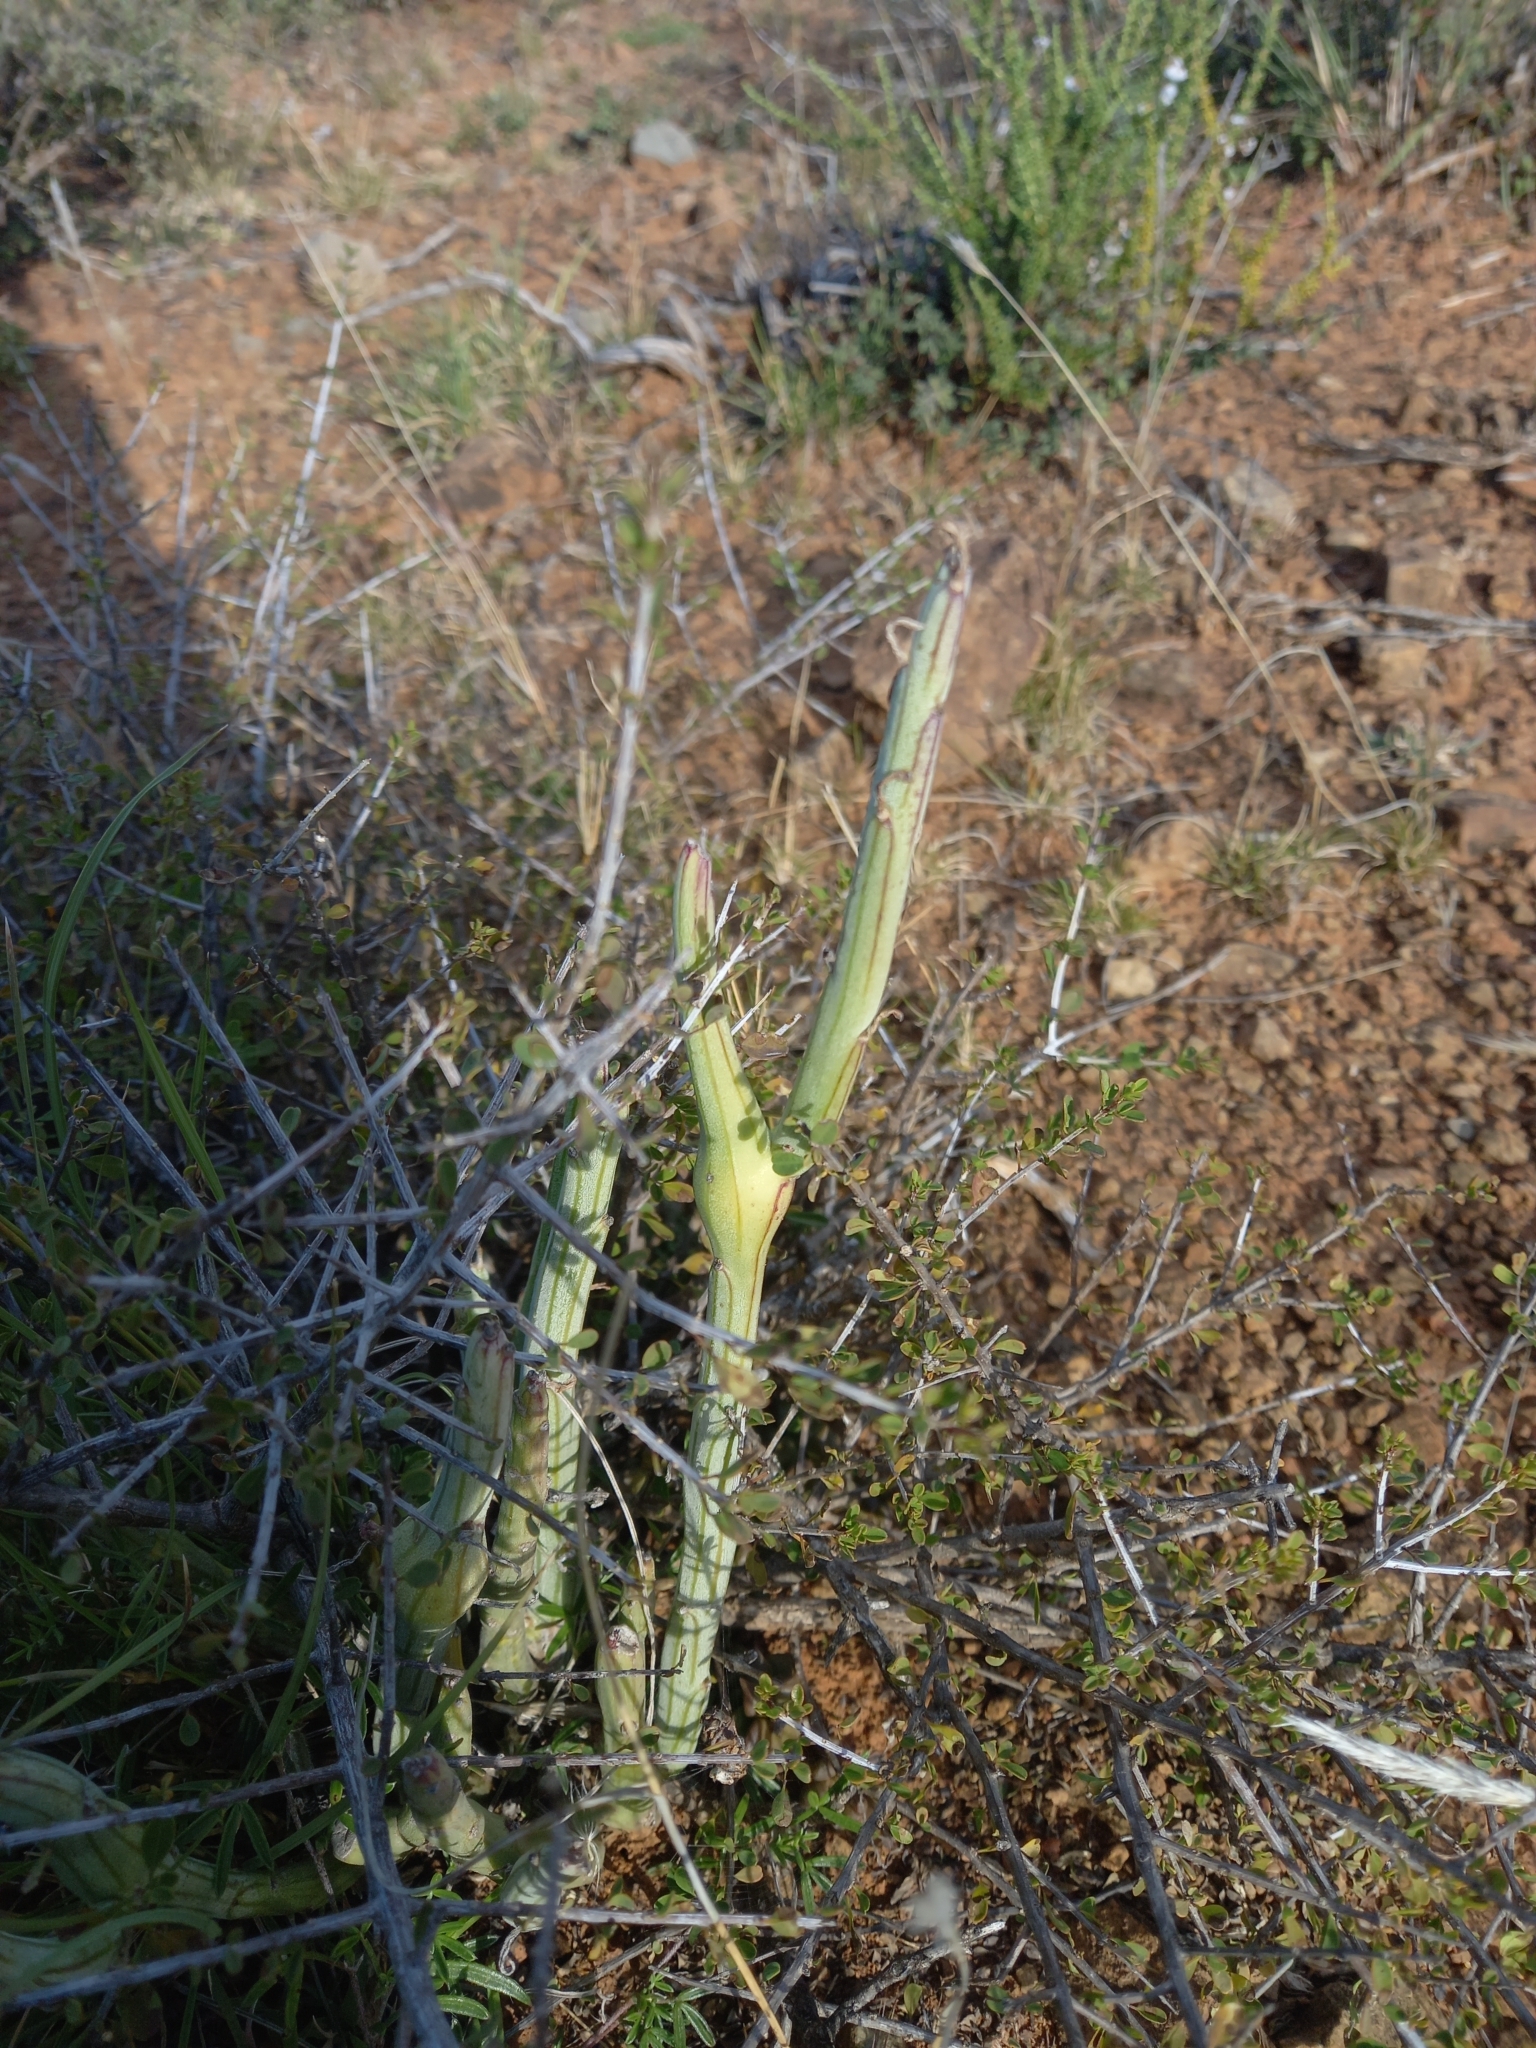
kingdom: Plantae
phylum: Tracheophyta
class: Magnoliopsida
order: Asterales
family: Asteraceae
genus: Curio
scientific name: Curio avasimontanus
